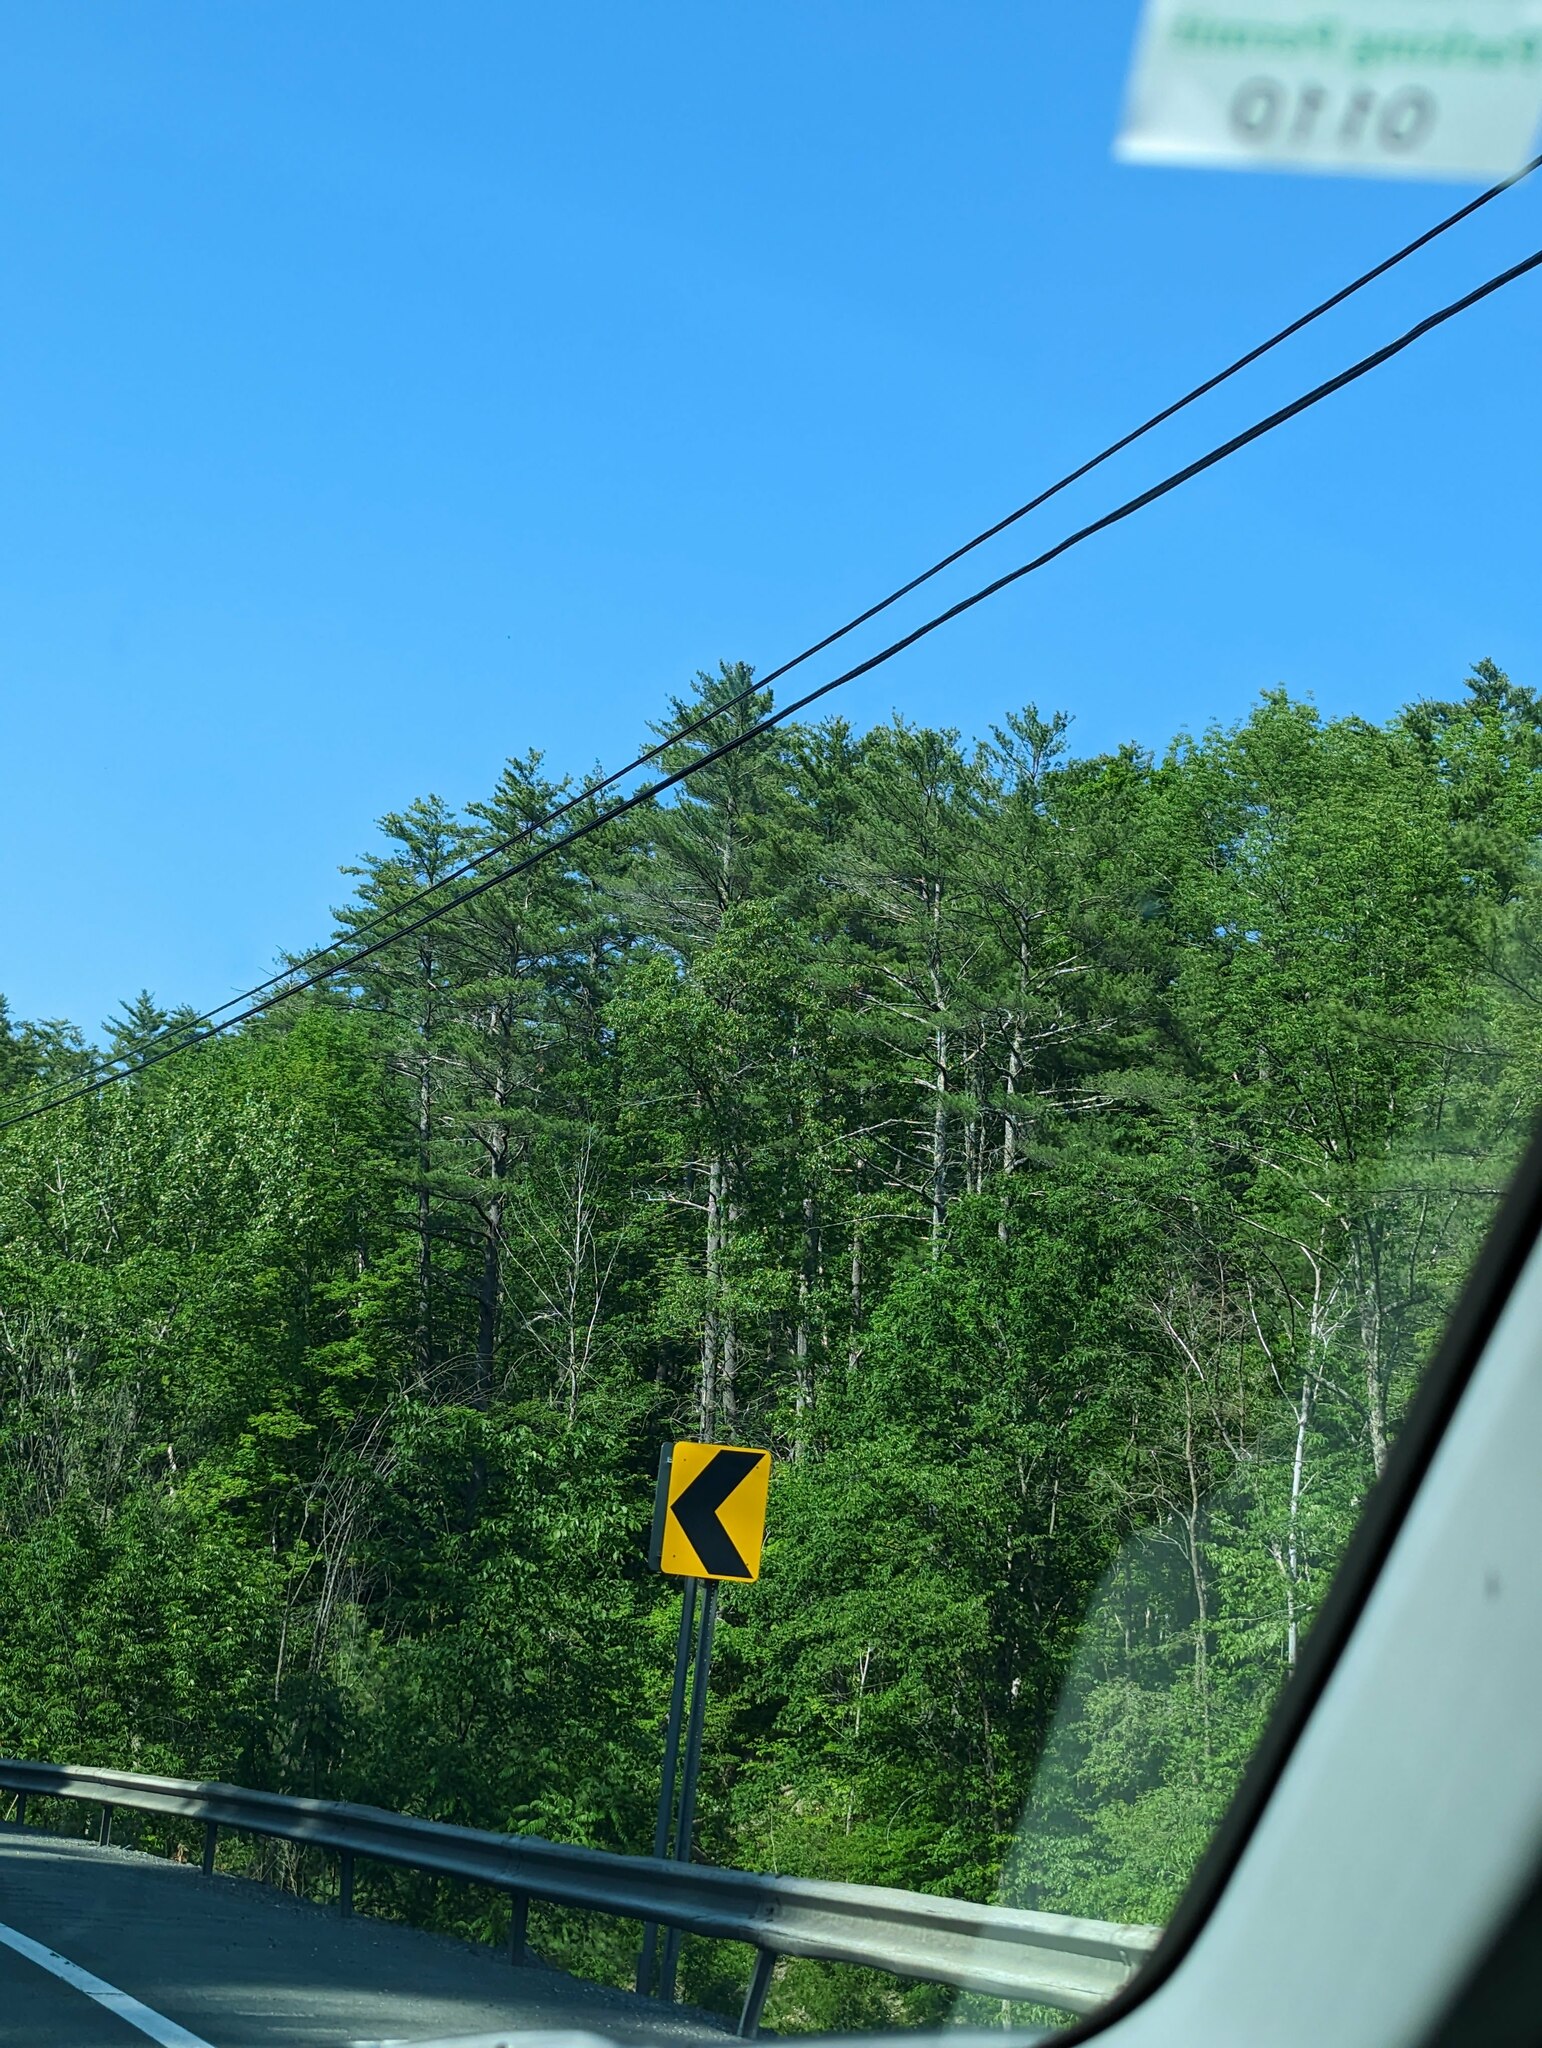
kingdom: Plantae
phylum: Tracheophyta
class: Pinopsida
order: Pinales
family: Pinaceae
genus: Pinus
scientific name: Pinus strobus
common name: Weymouth pine
